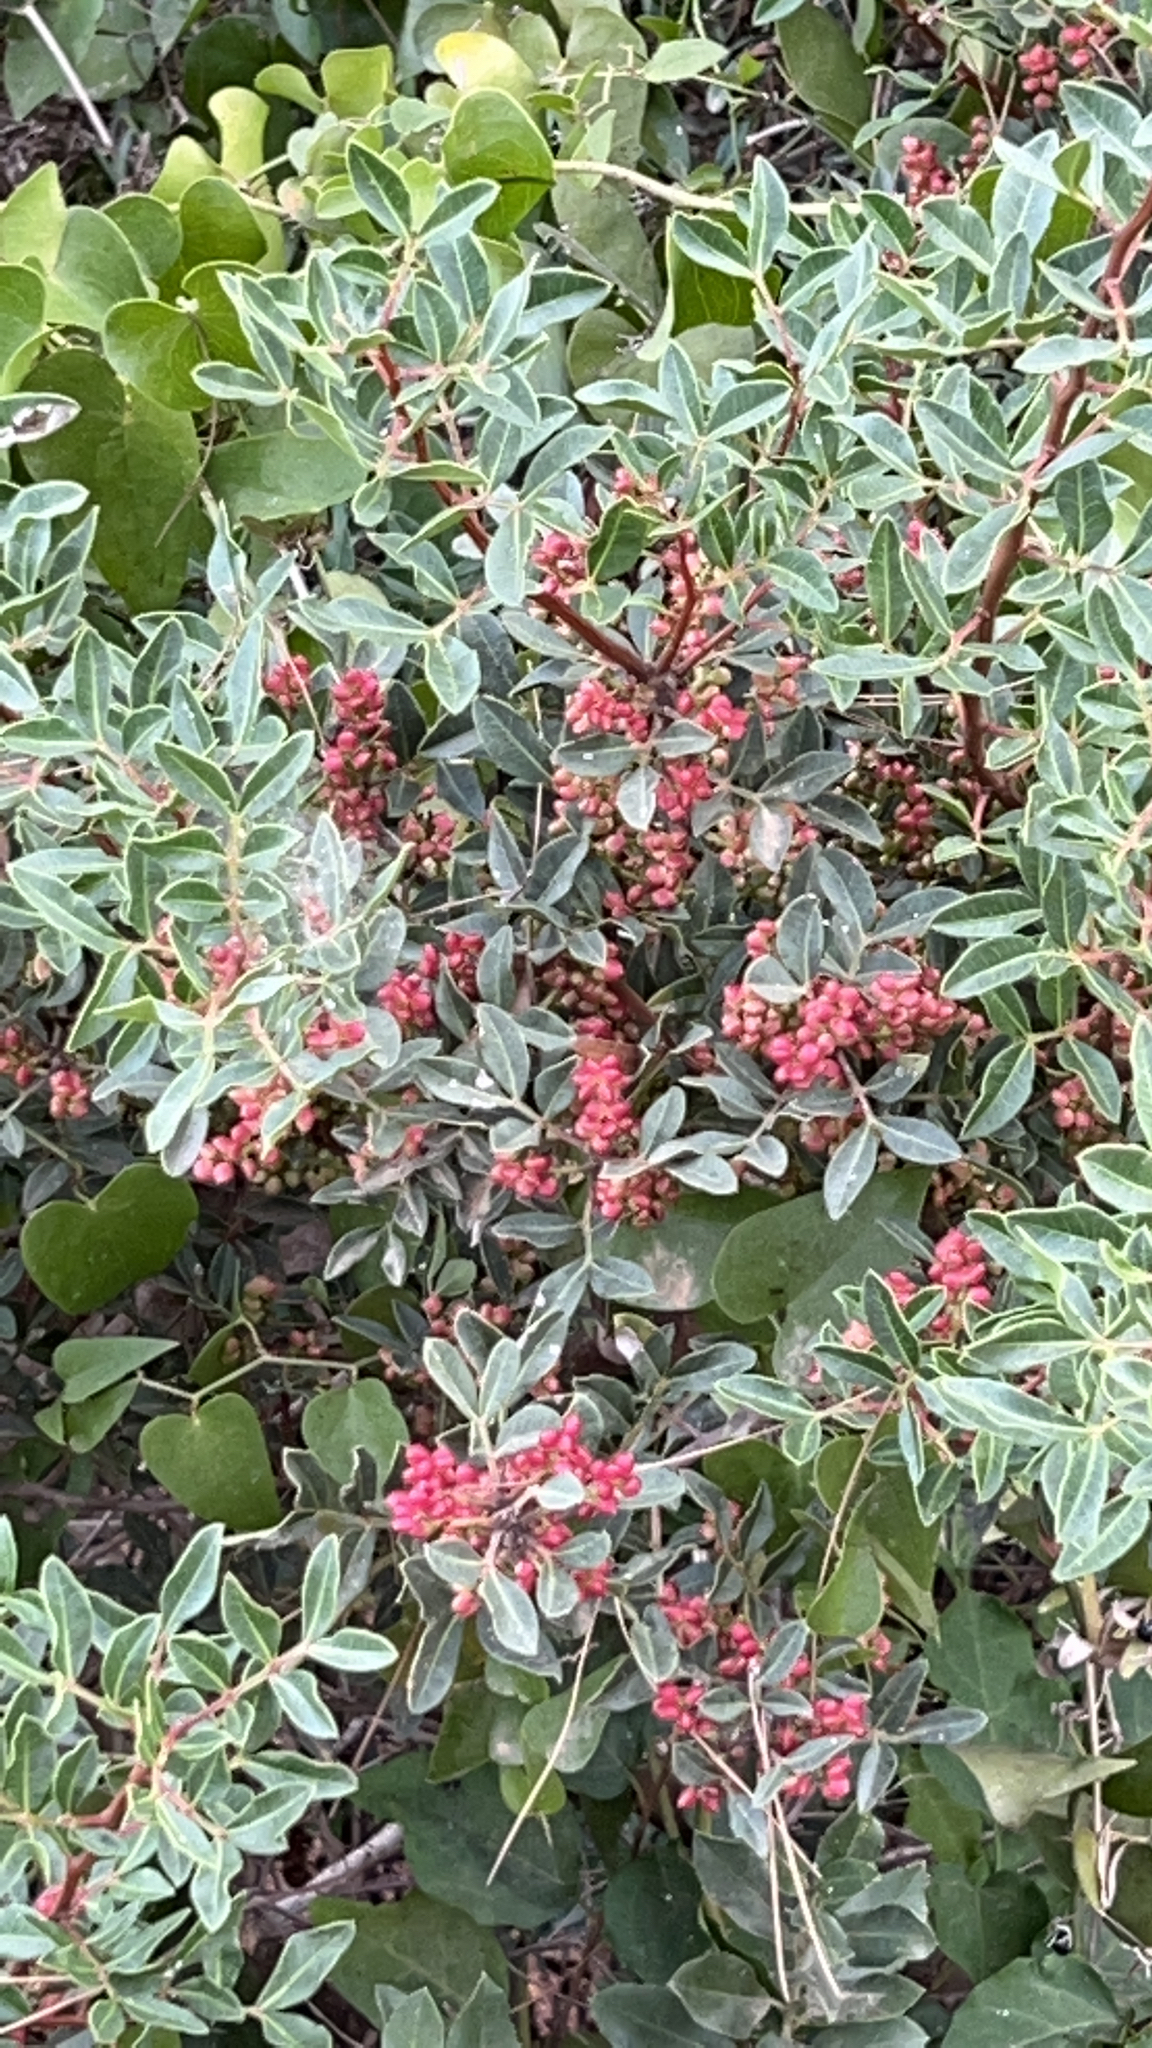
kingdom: Plantae
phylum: Tracheophyta
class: Magnoliopsida
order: Sapindales
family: Anacardiaceae
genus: Pistacia
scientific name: Pistacia lentiscus
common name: Lentisk
